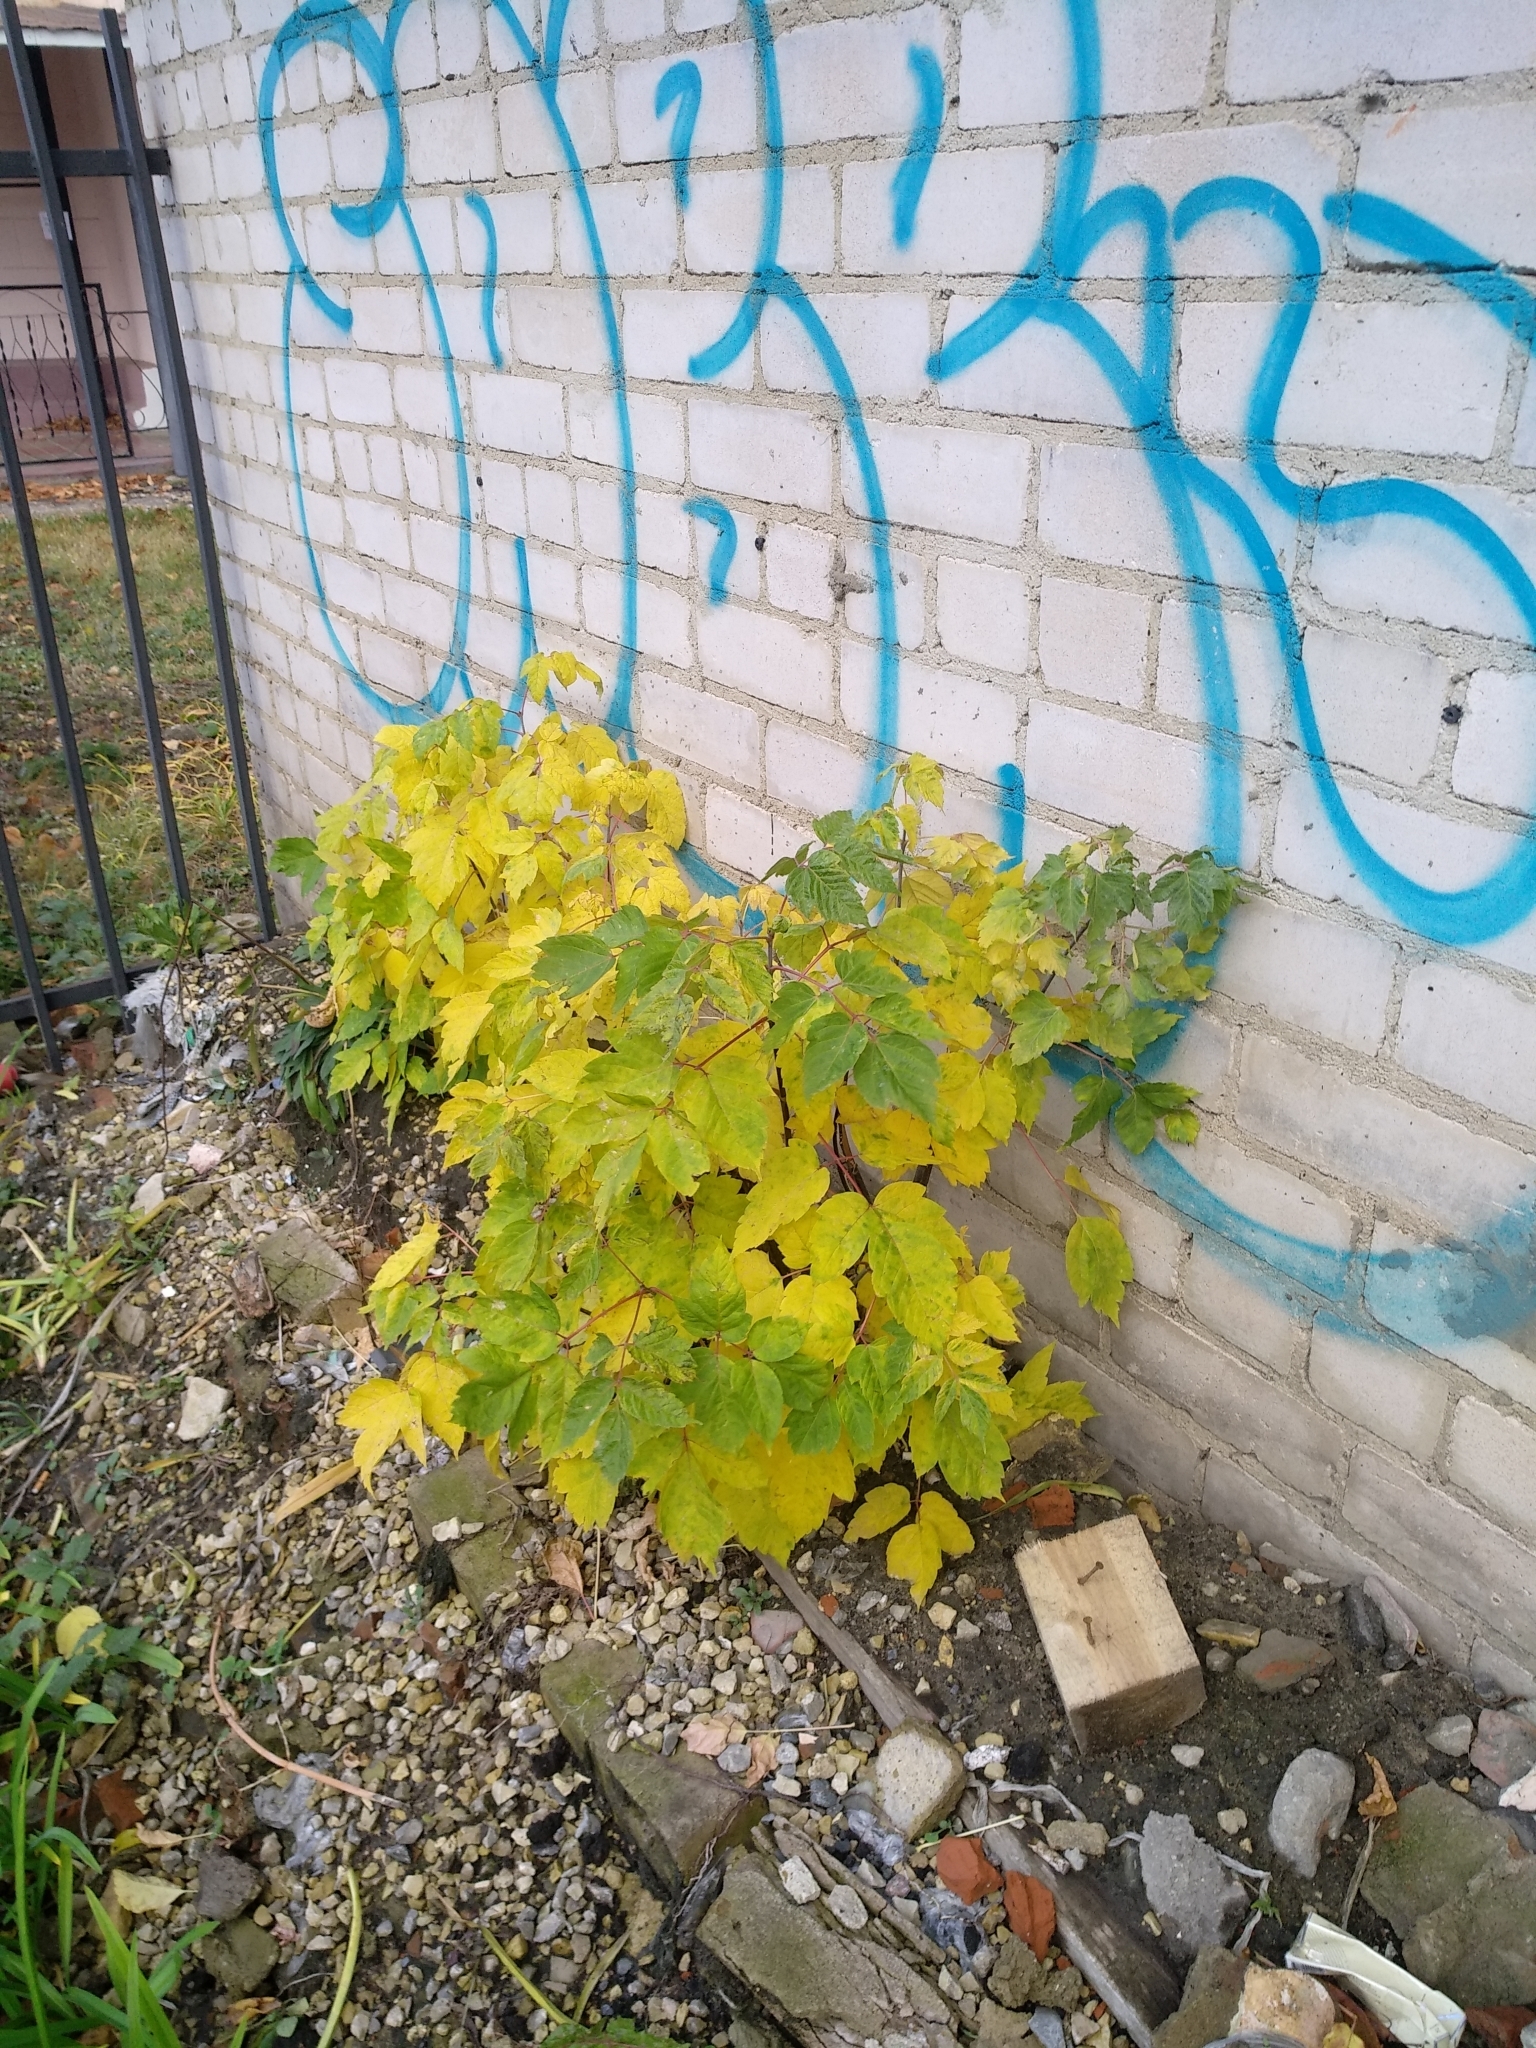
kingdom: Plantae
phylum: Tracheophyta
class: Magnoliopsida
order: Sapindales
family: Sapindaceae
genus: Acer
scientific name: Acer negundo
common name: Ashleaf maple
